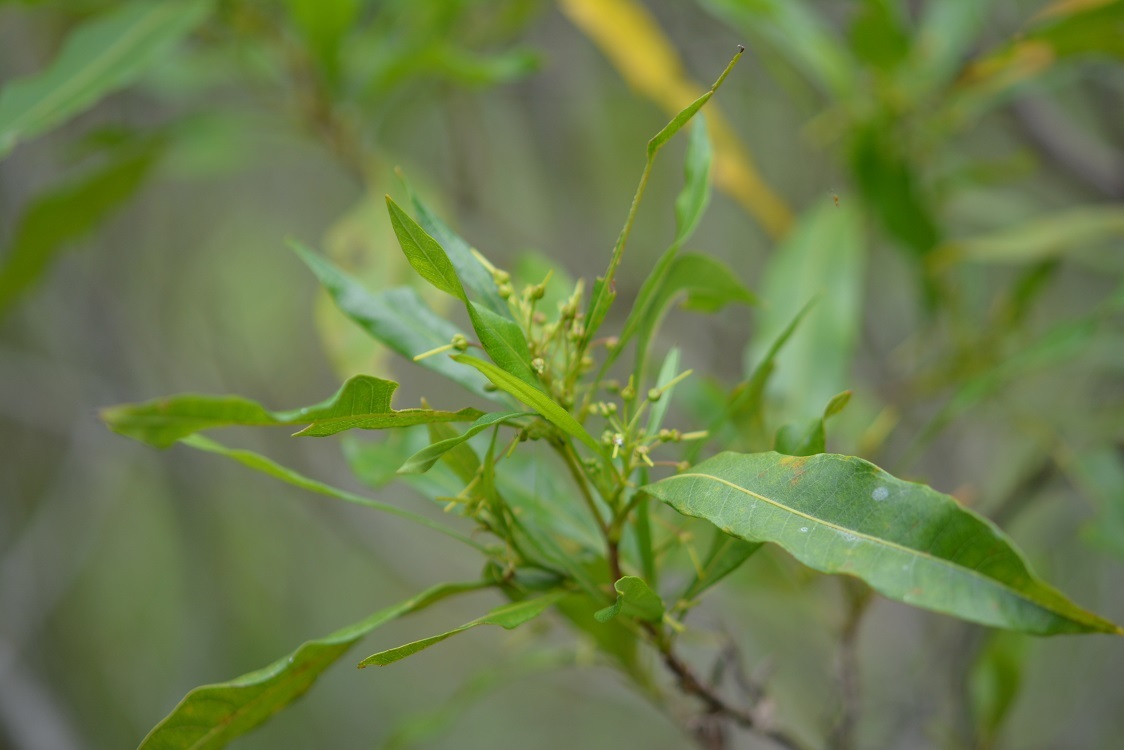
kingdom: Plantae
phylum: Tracheophyta
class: Magnoliopsida
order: Sapindales
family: Sapindaceae
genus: Dodonaea
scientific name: Dodonaea viscosa
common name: Hopbush
